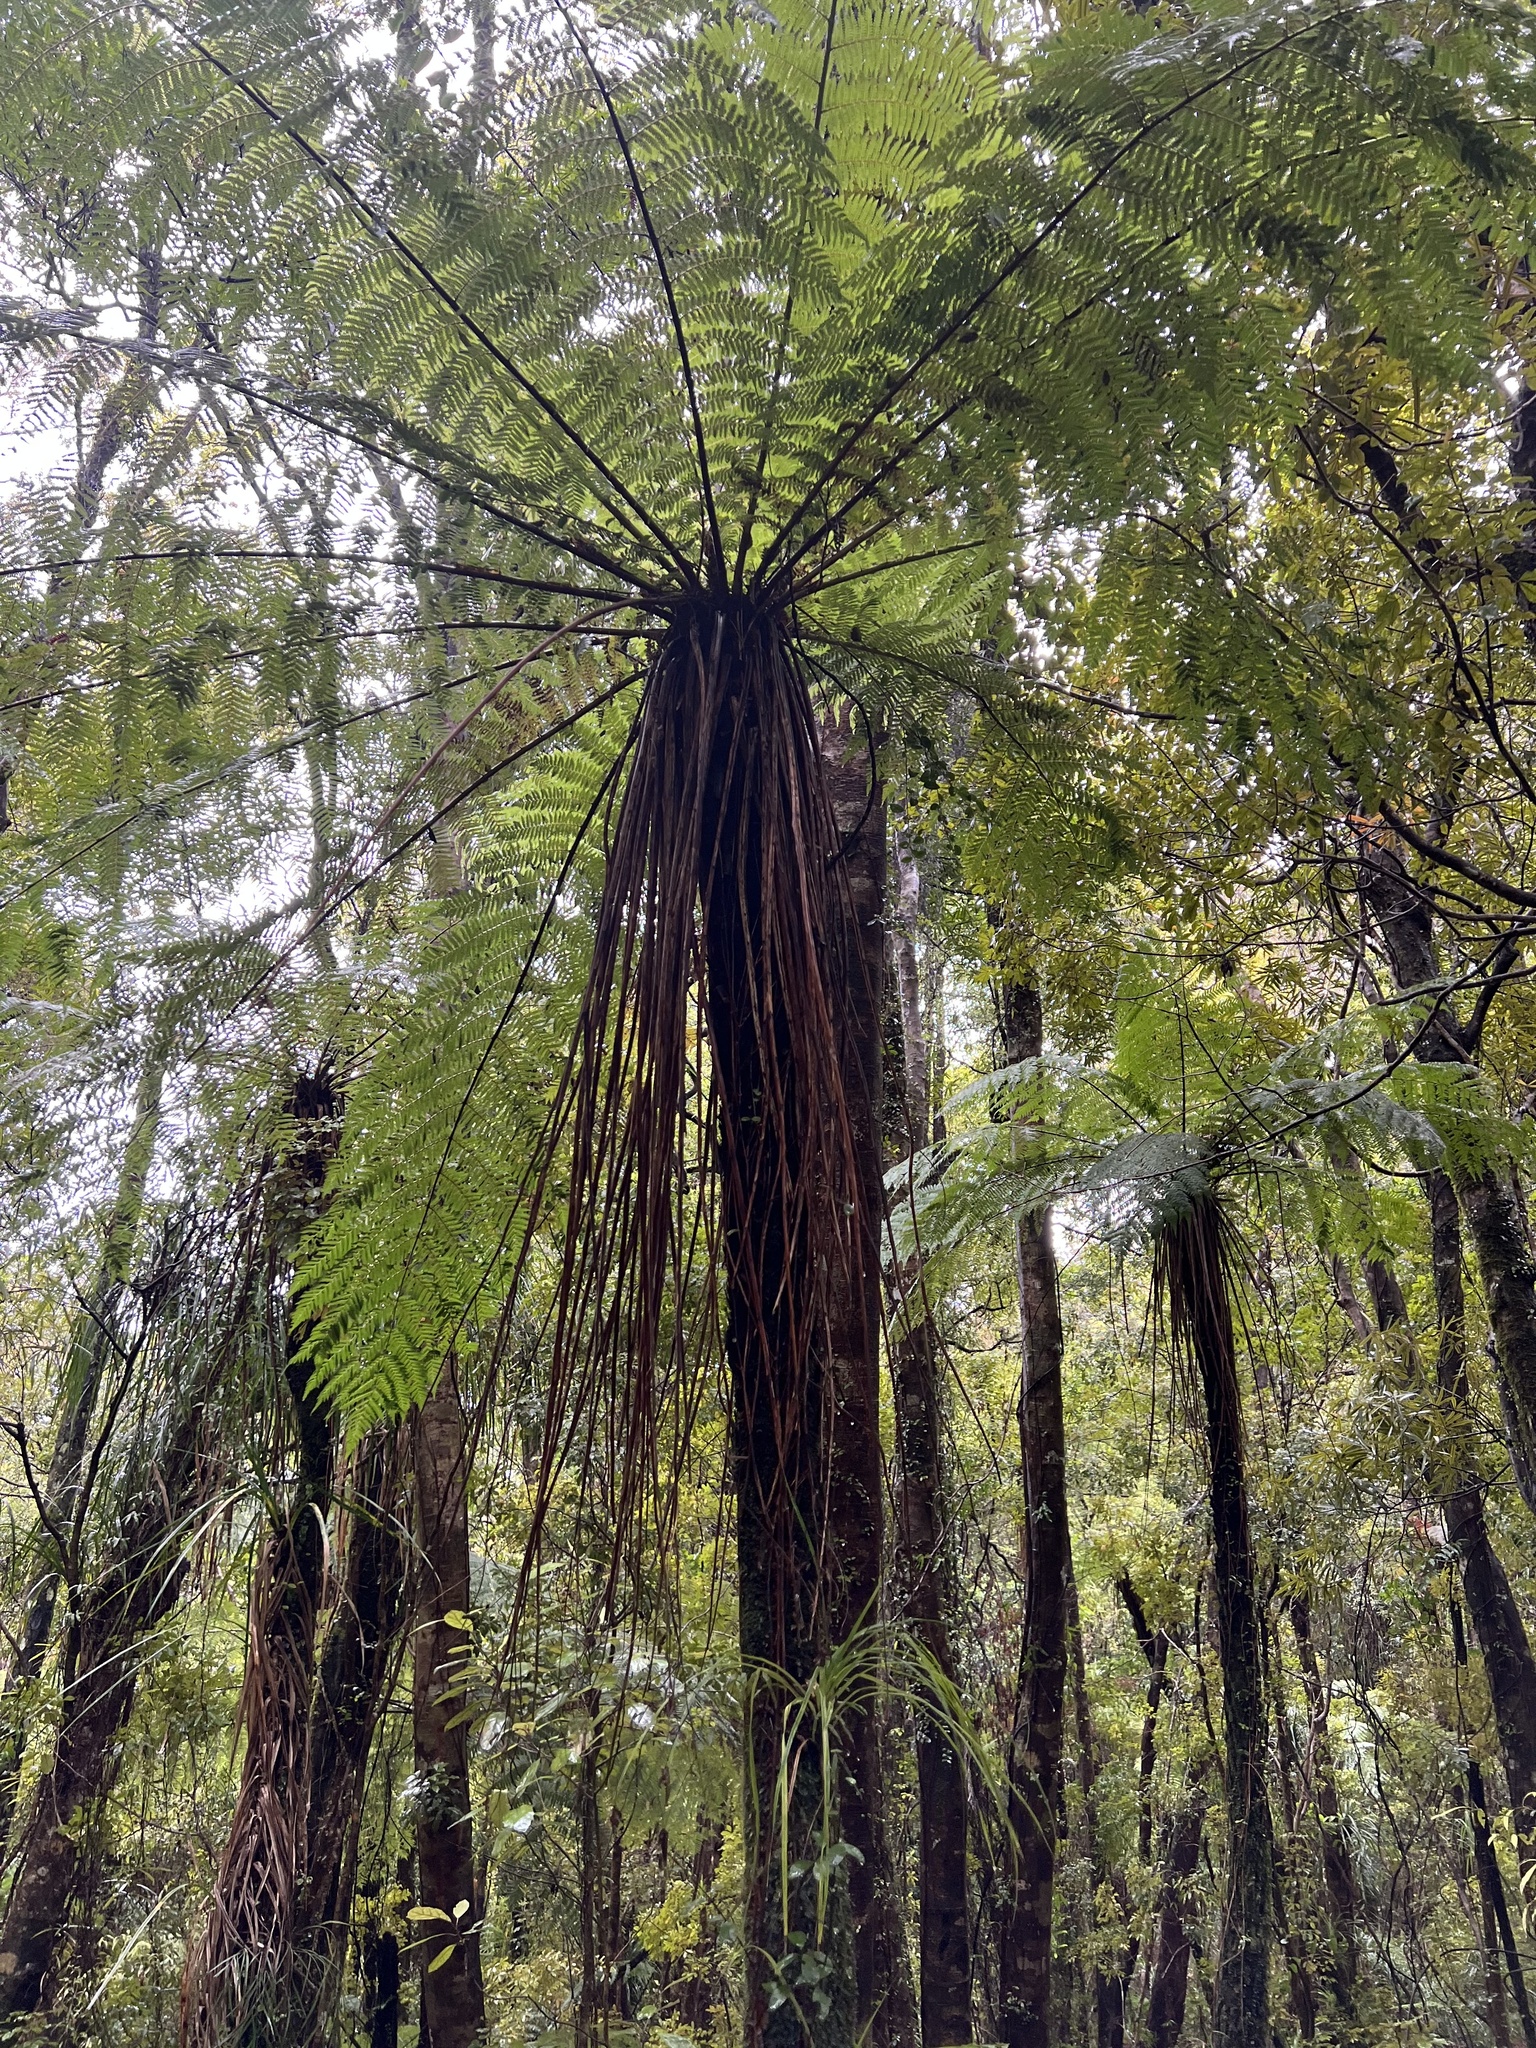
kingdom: Plantae
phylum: Tracheophyta
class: Polypodiopsida
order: Cyatheales
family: Cyatheaceae
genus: Alsophila
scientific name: Alsophila smithii
